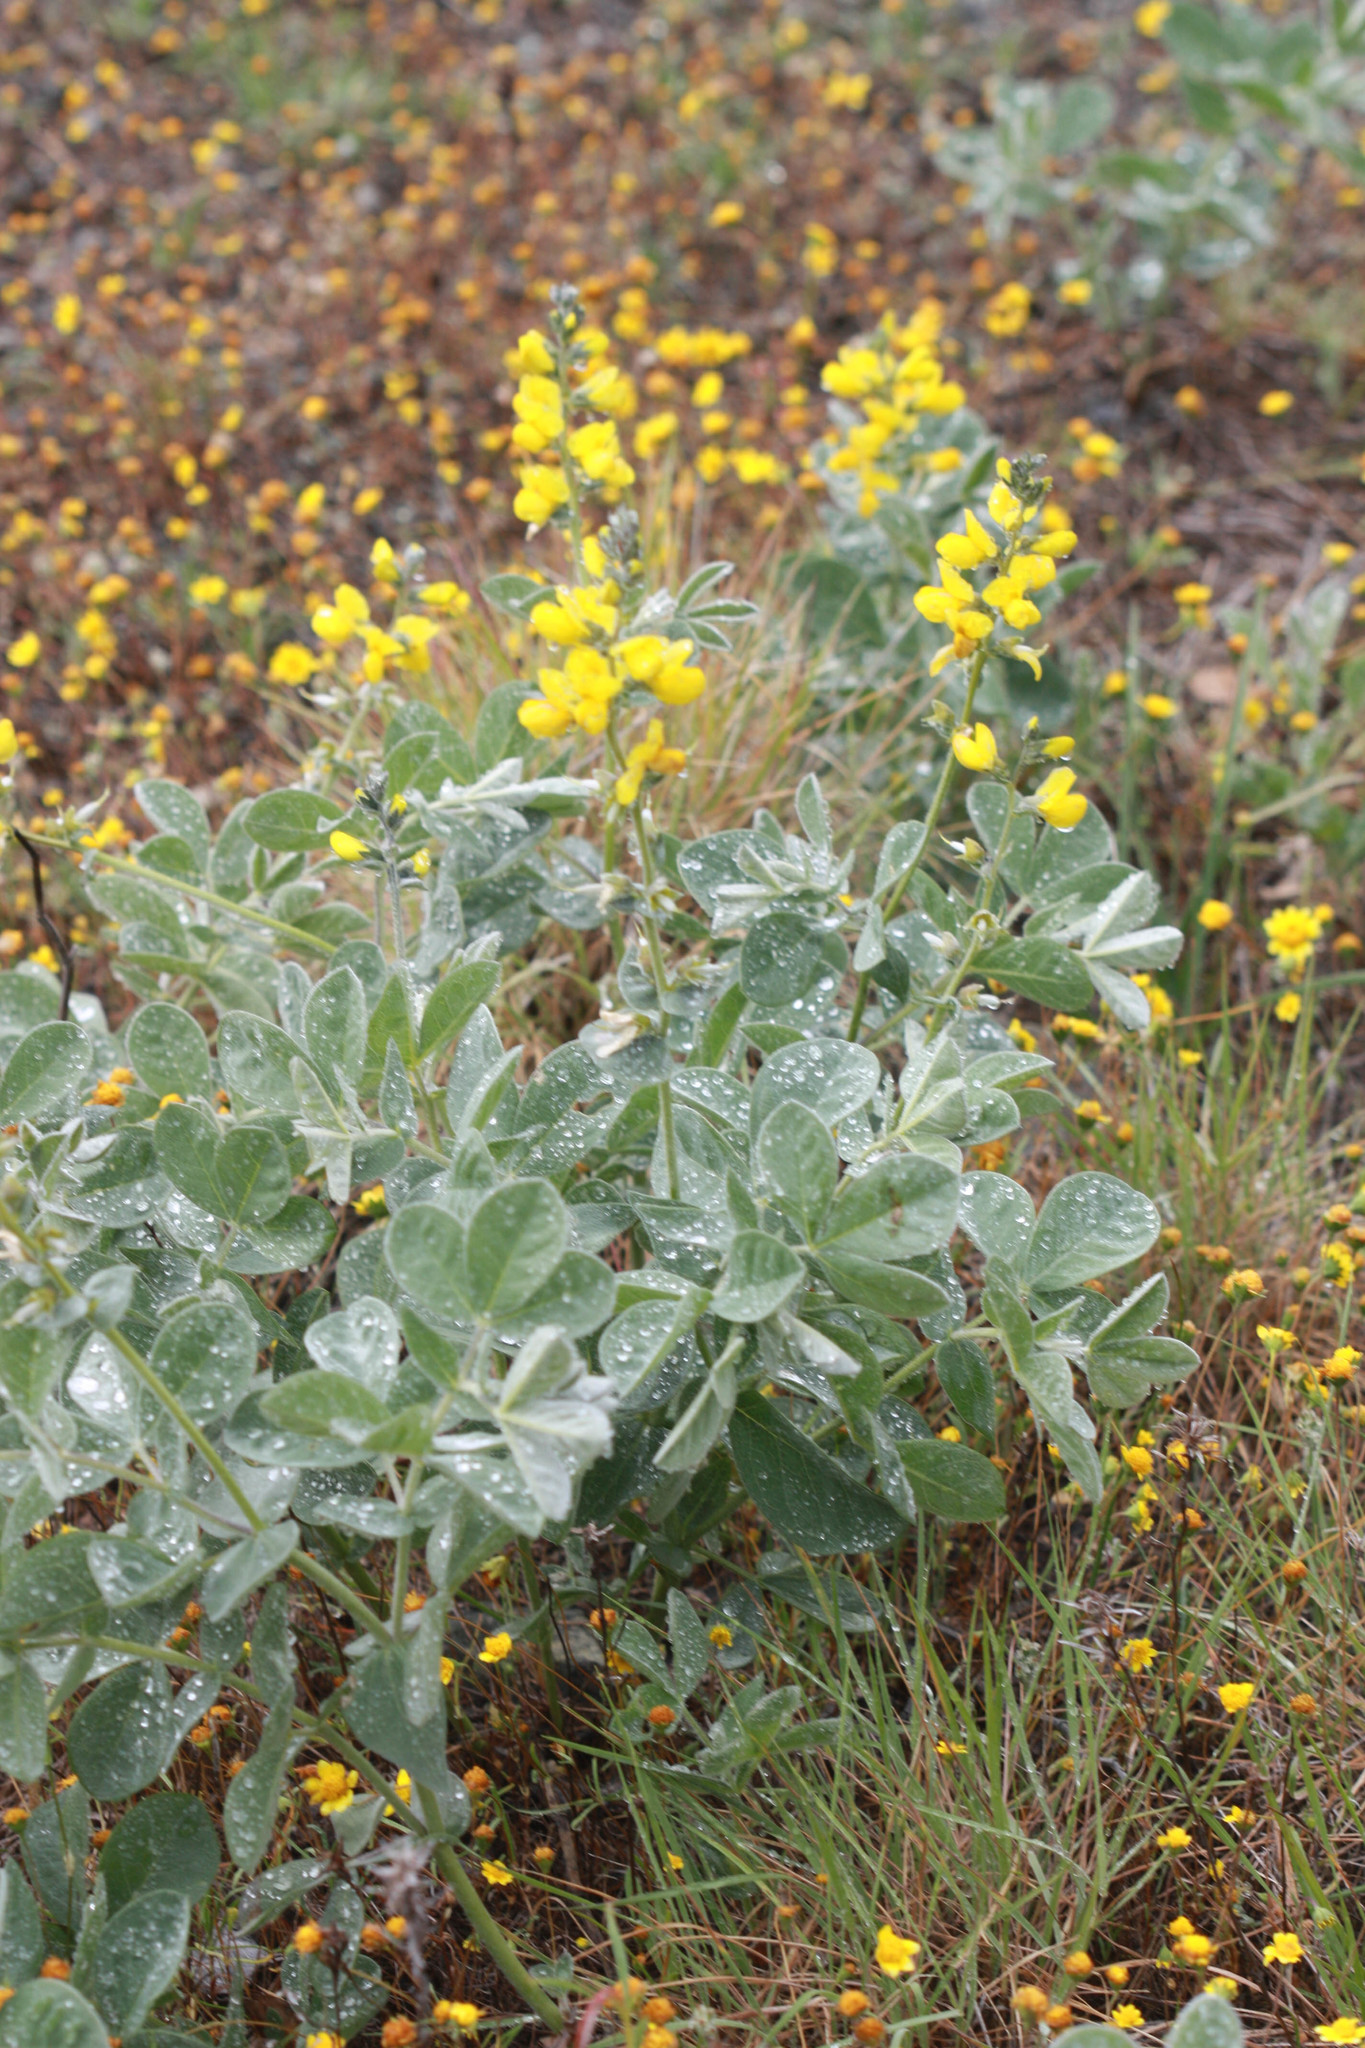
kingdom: Plantae
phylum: Tracheophyta
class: Magnoliopsida
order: Fabales
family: Fabaceae
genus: Thermopsis
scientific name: Thermopsis californica
